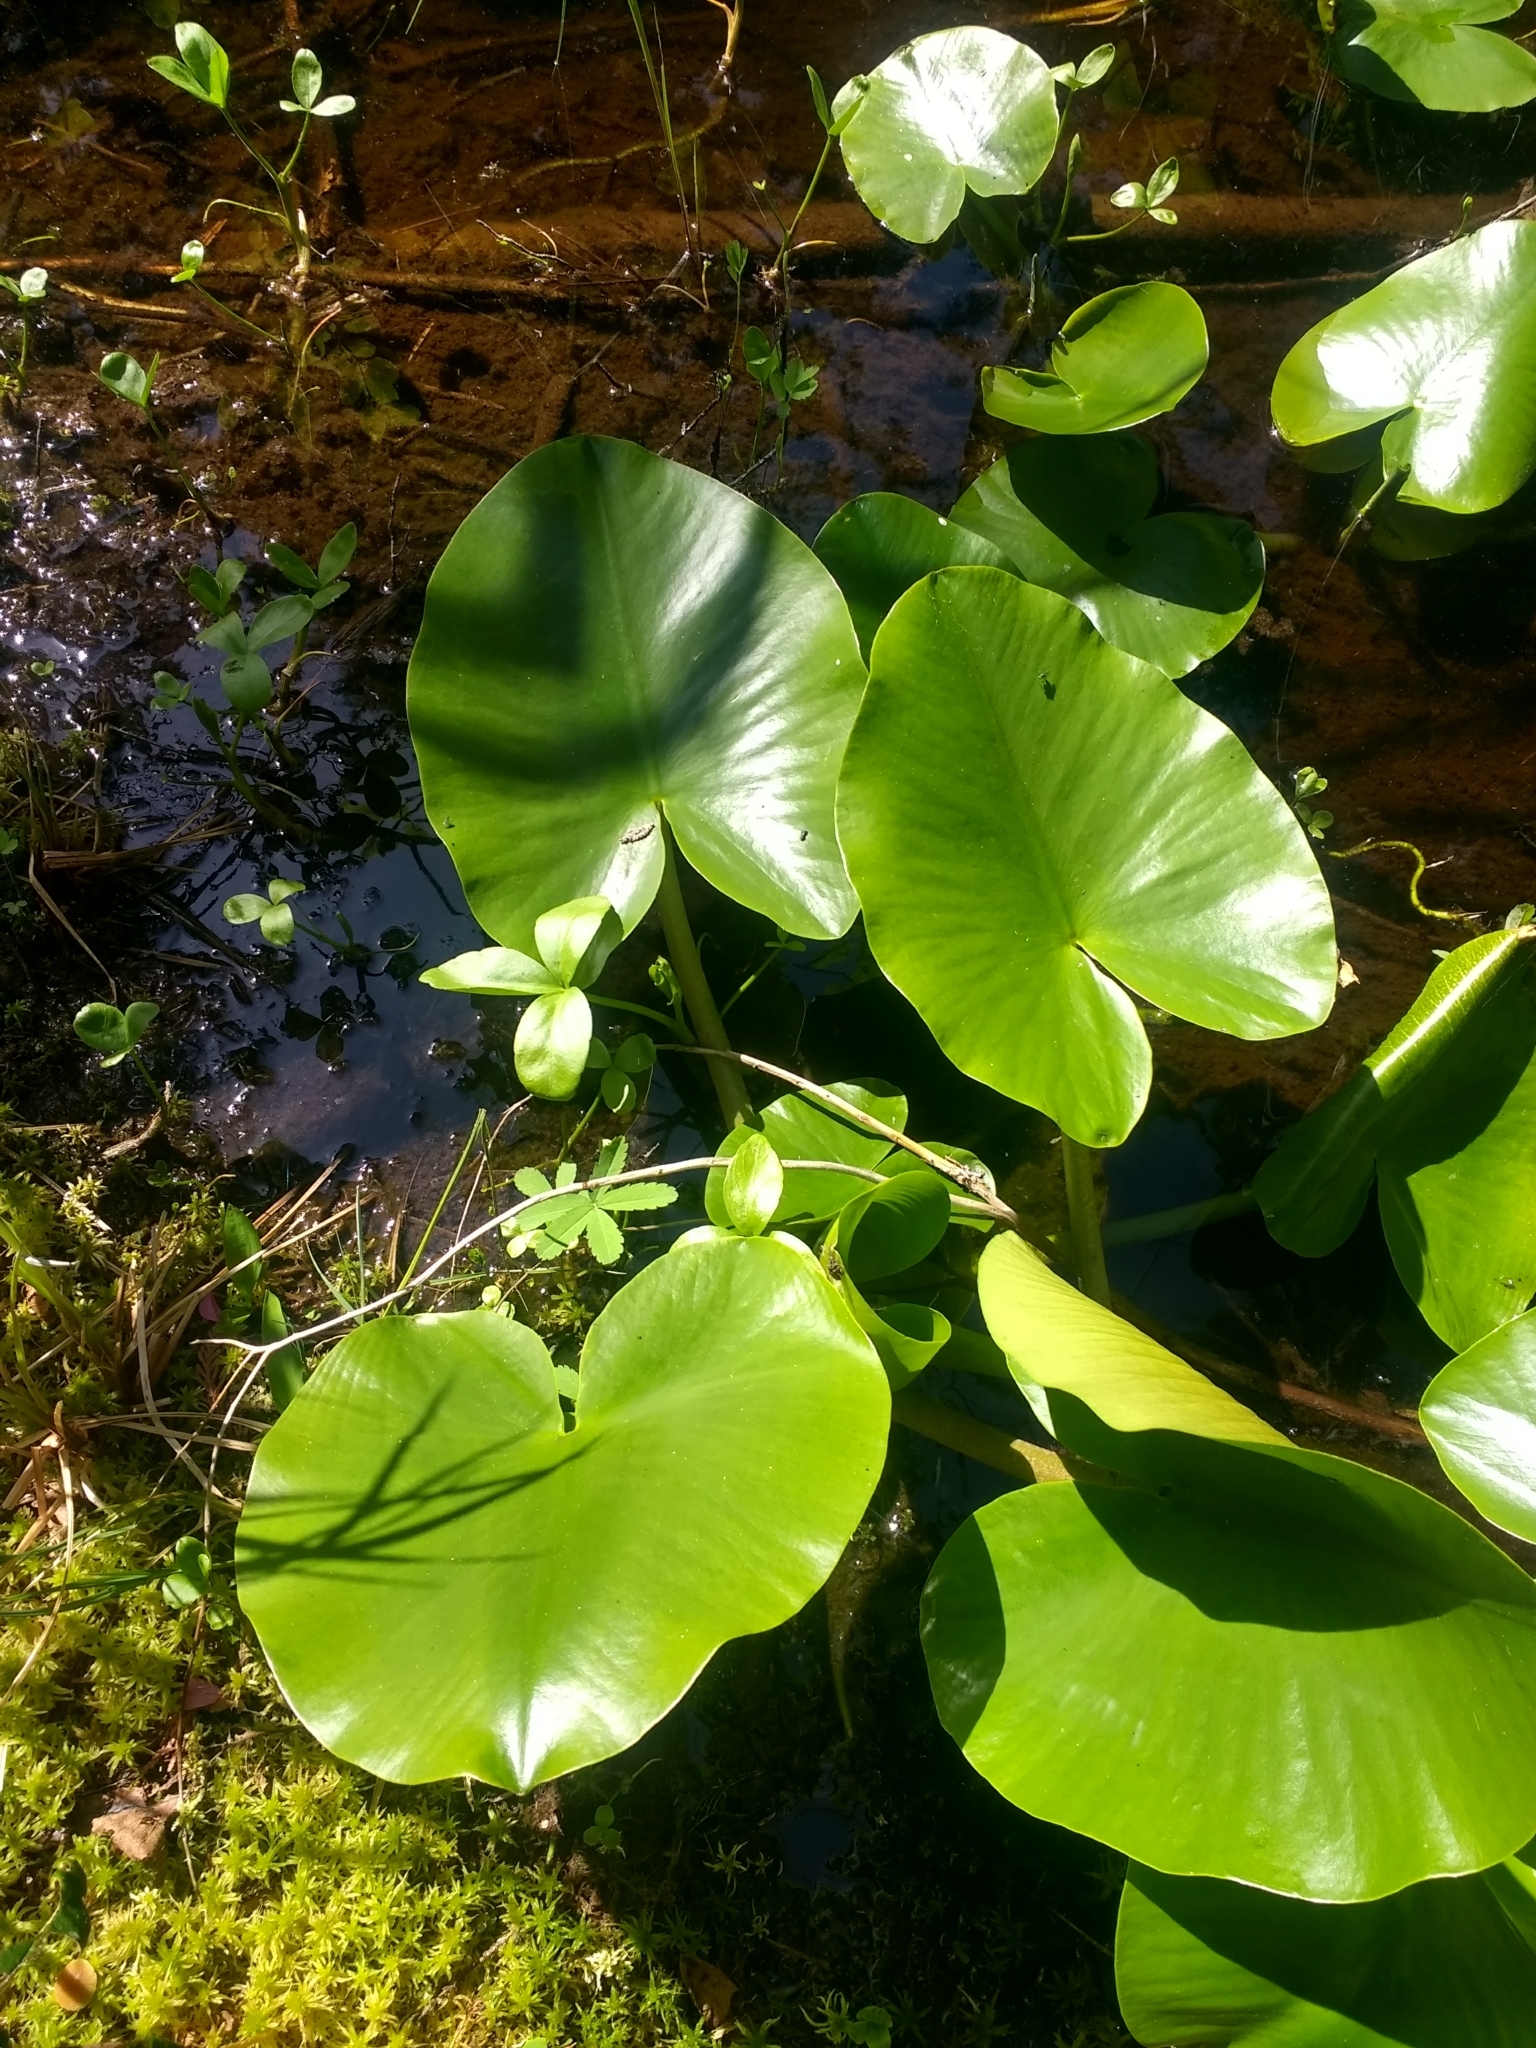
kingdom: Plantae
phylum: Tracheophyta
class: Magnoliopsida
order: Nymphaeales
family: Nymphaeaceae
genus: Nuphar
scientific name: Nuphar polysepala
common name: Rocky mountain cow-lily
